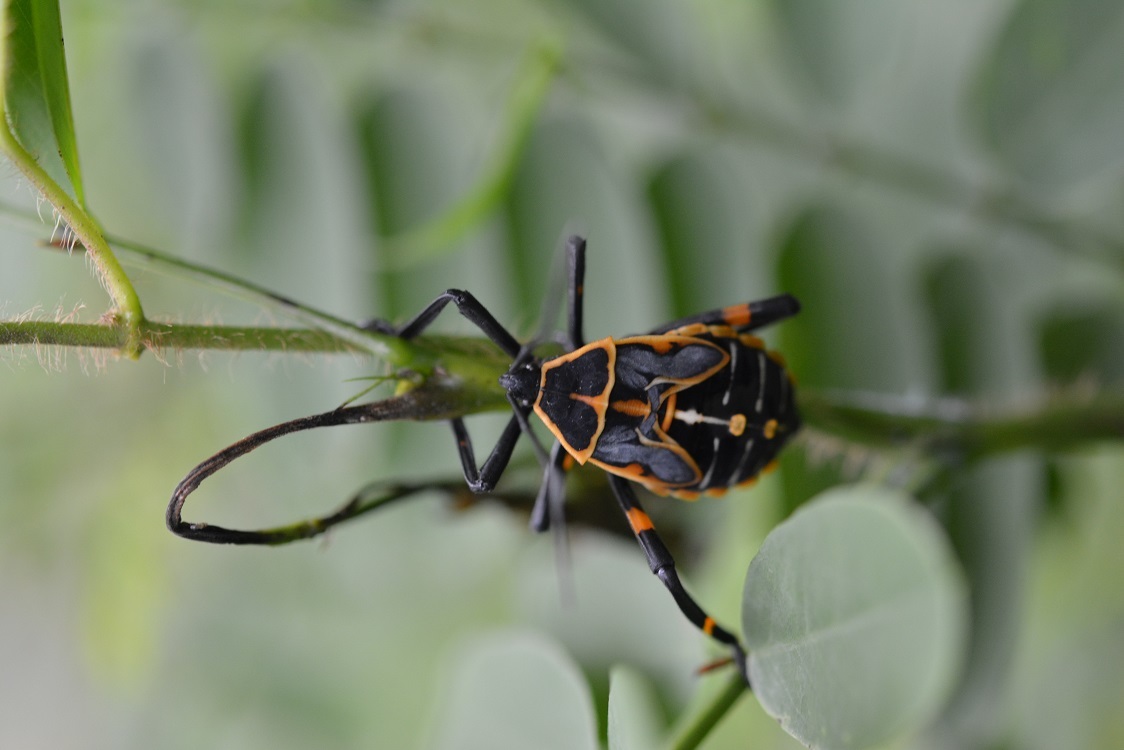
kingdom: Animalia
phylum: Arthropoda
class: Insecta
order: Hemiptera
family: Coreidae
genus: Thasus
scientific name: Thasus acutangulus
